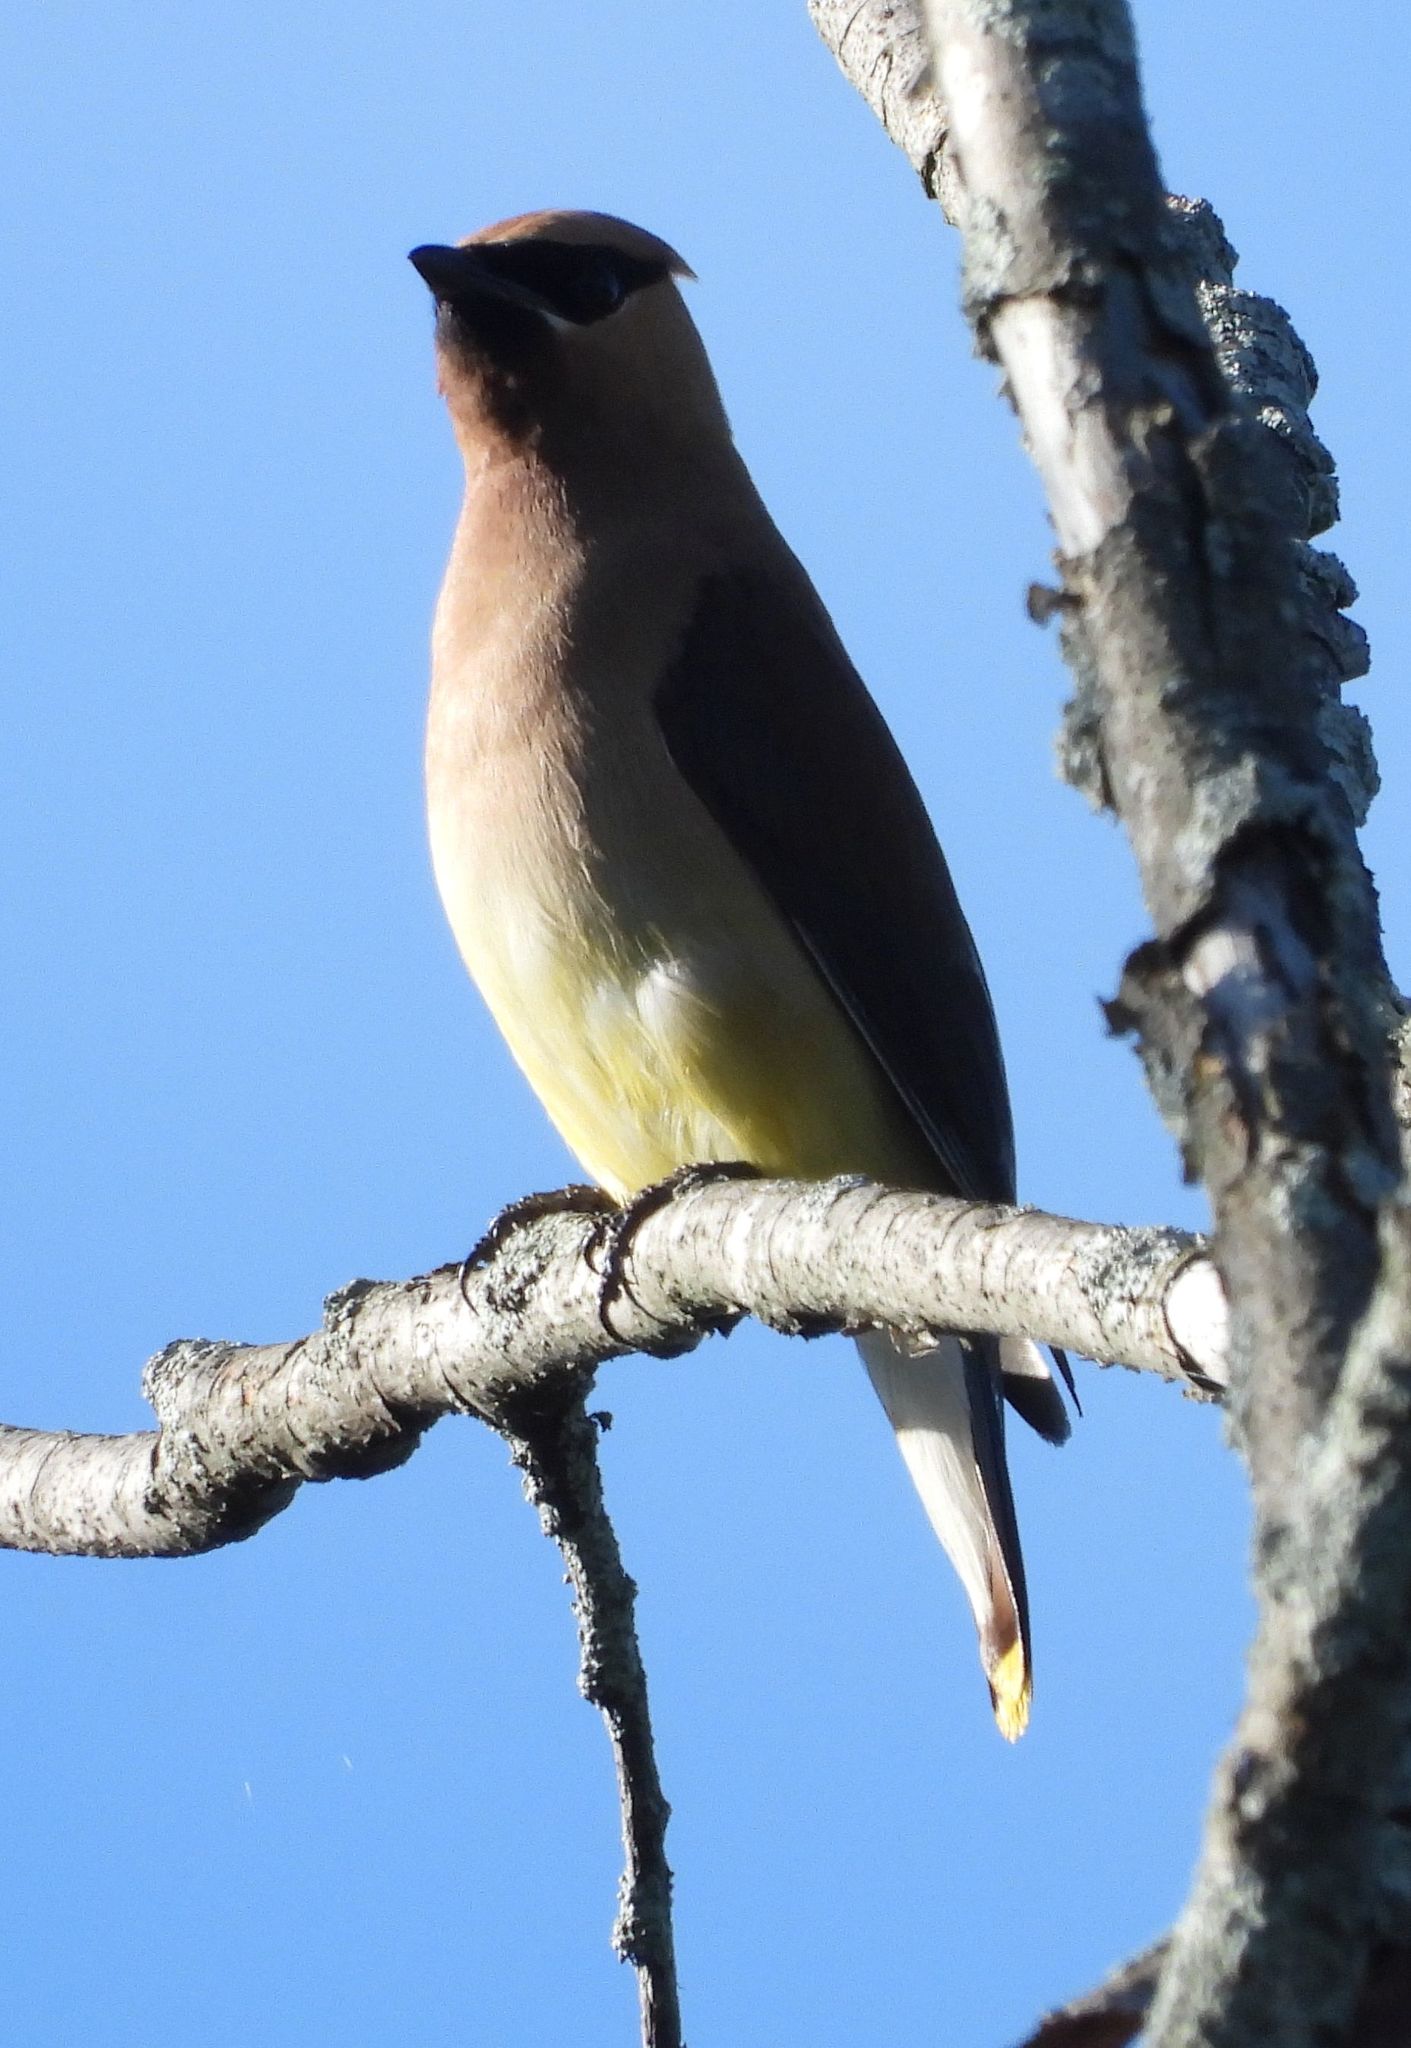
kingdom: Animalia
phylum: Chordata
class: Aves
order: Passeriformes
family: Bombycillidae
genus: Bombycilla
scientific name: Bombycilla cedrorum
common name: Cedar waxwing
